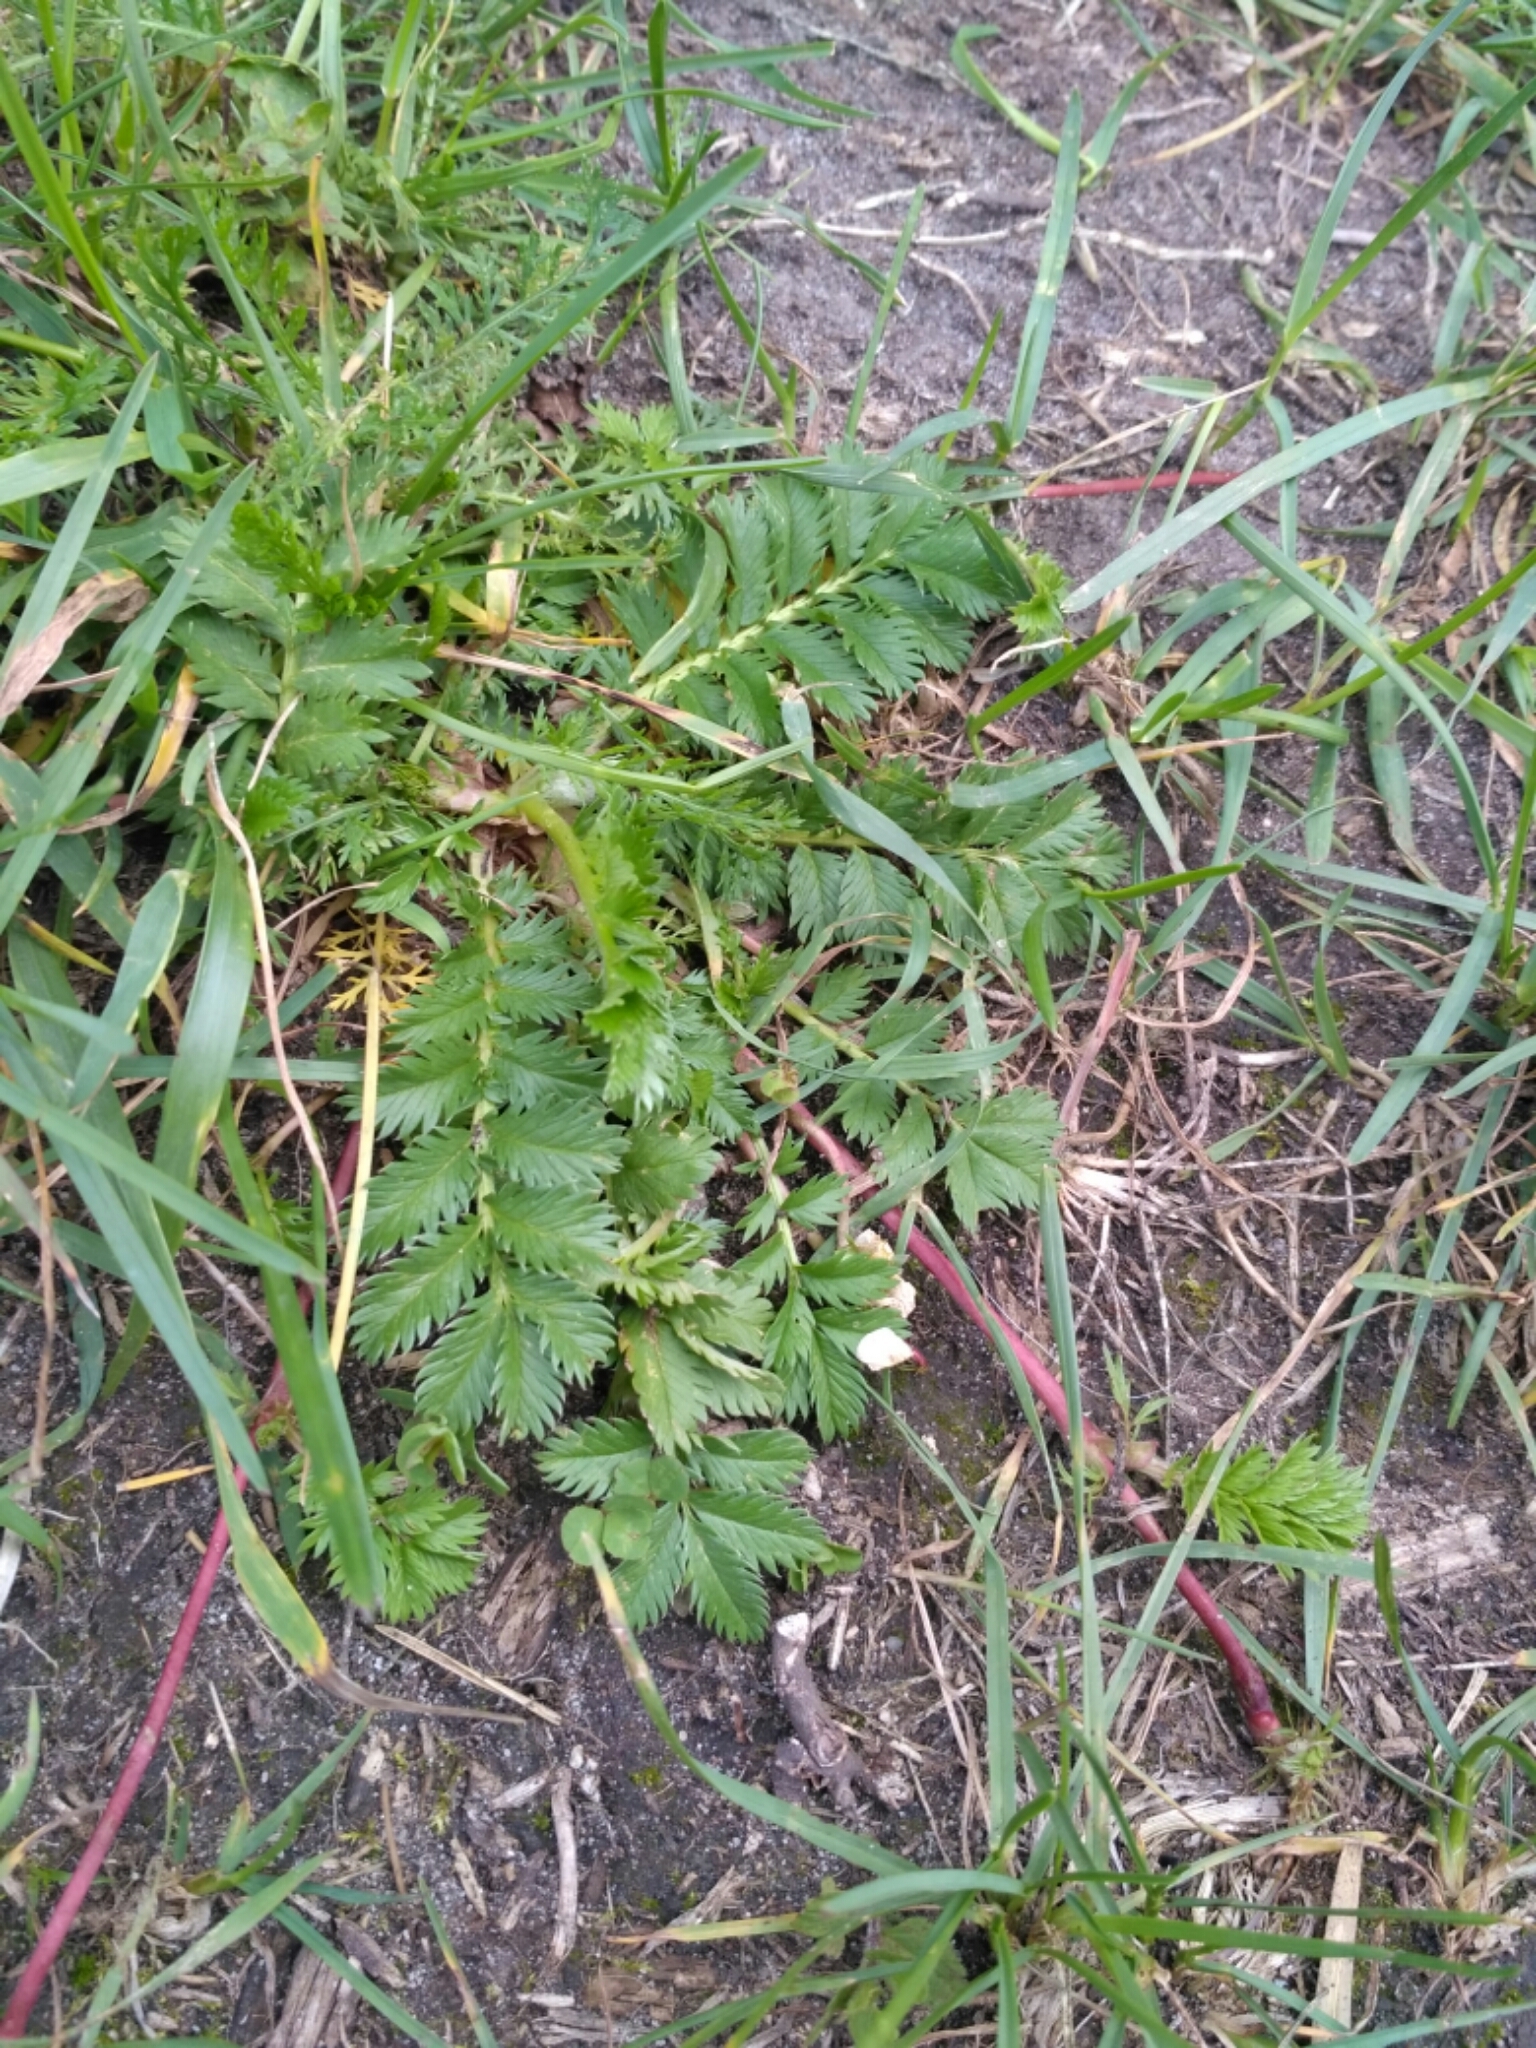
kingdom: Plantae
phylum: Tracheophyta
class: Magnoliopsida
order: Rosales
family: Rosaceae
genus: Argentina
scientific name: Argentina anserina
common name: Common silverweed
